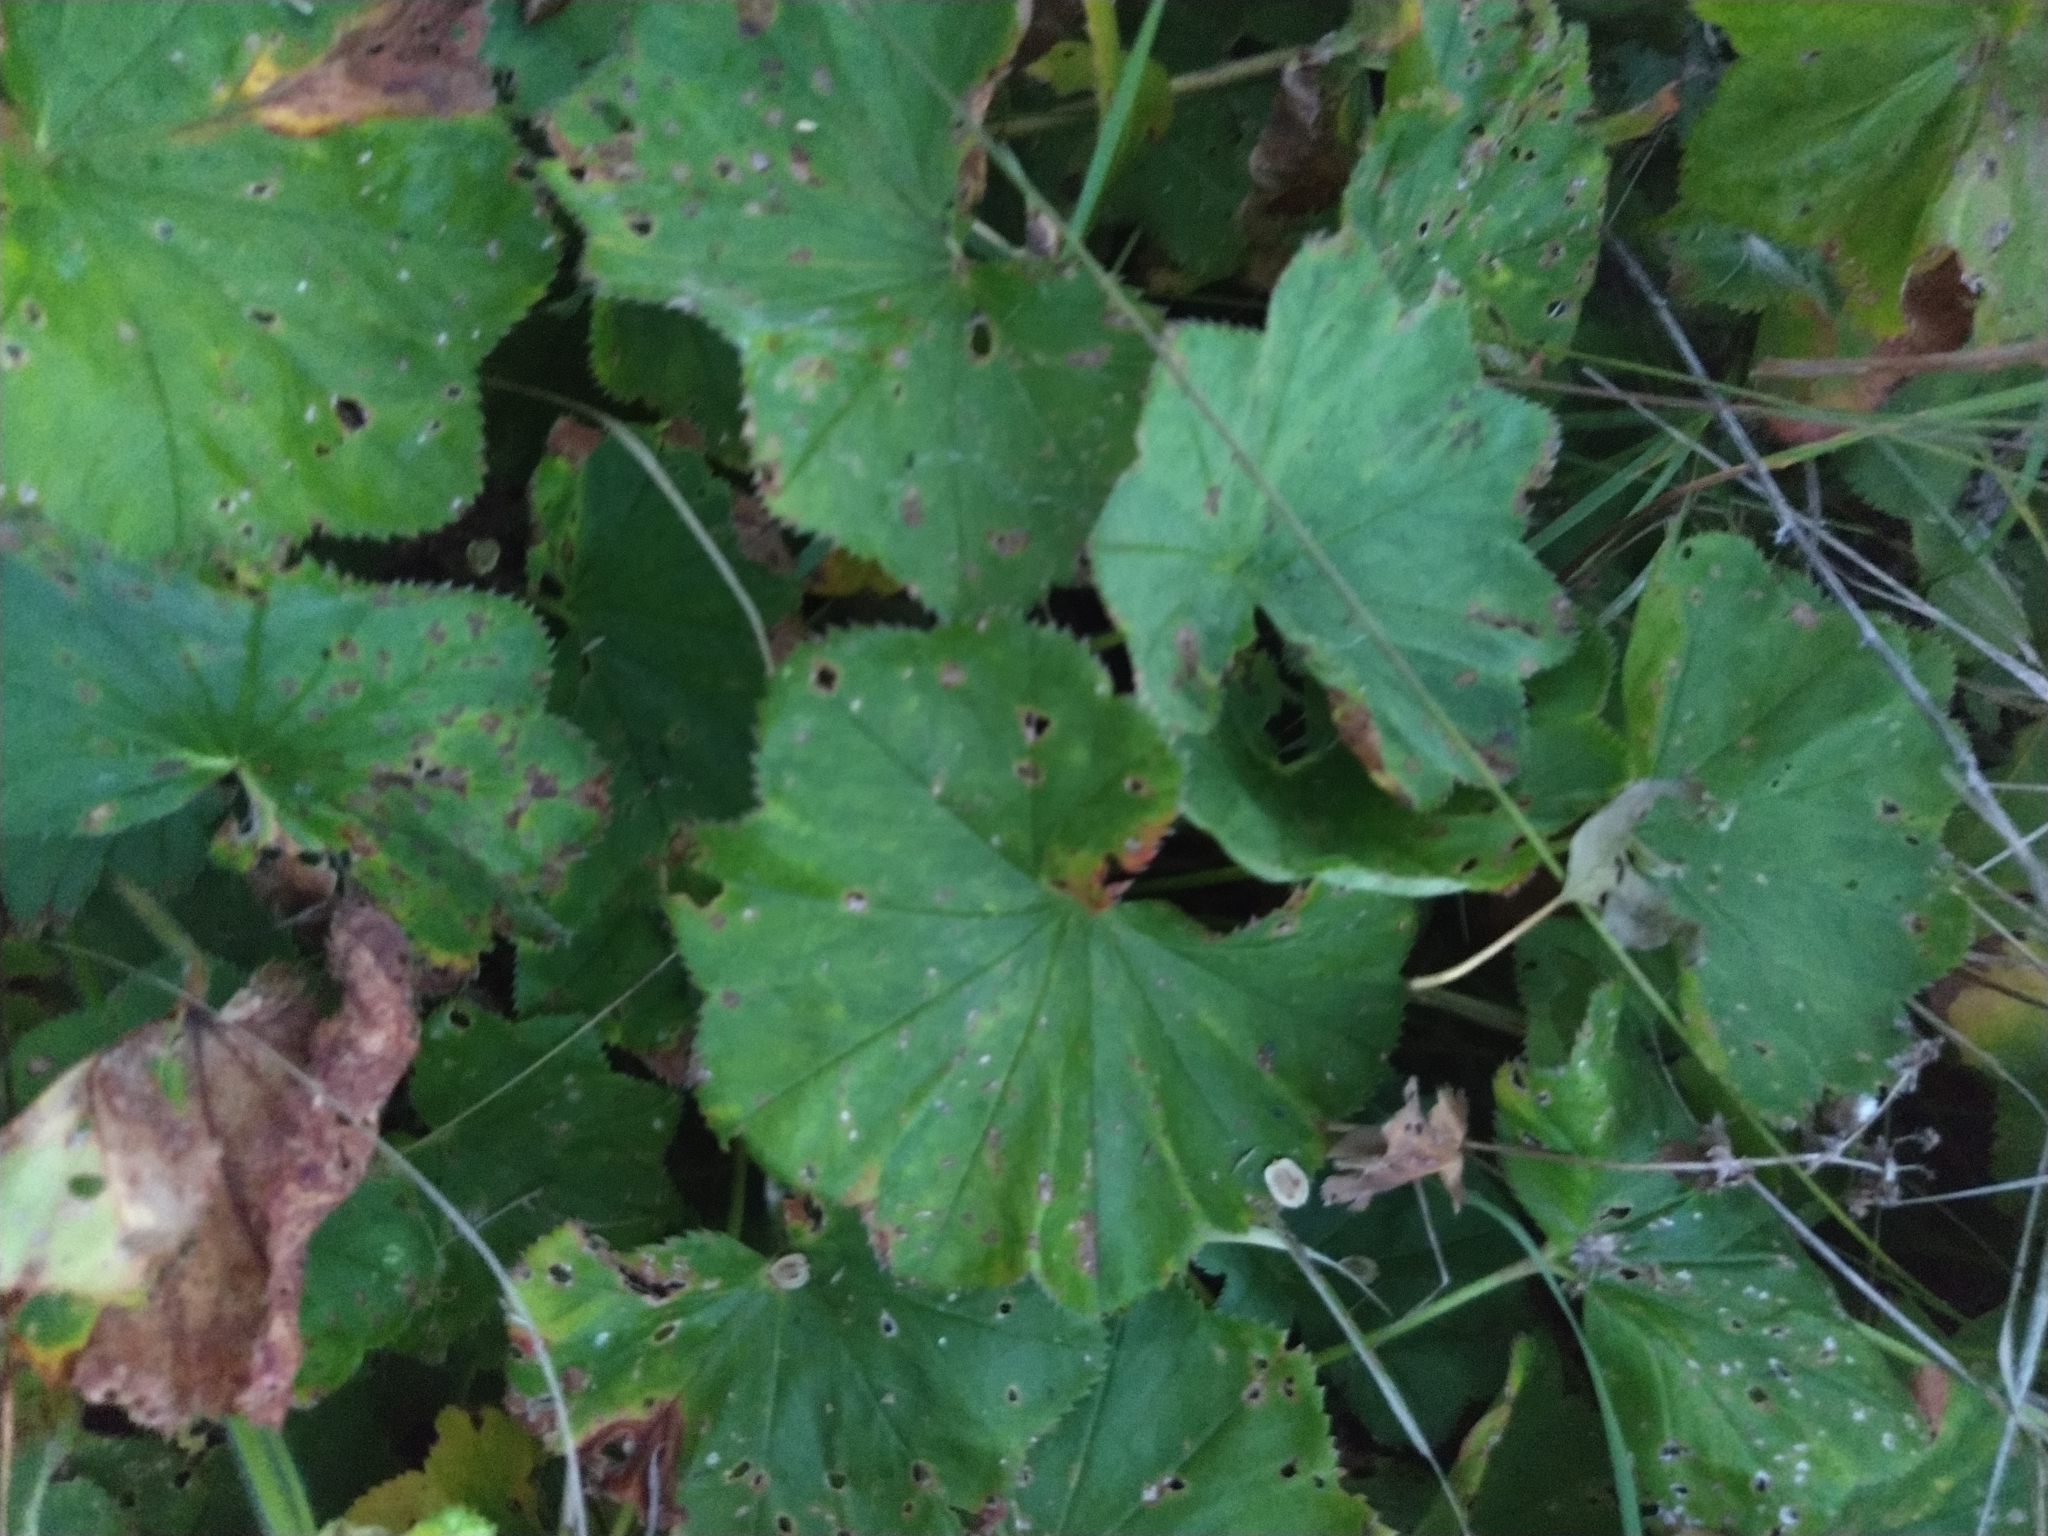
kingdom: Plantae
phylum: Tracheophyta
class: Magnoliopsida
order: Rosales
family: Rosaceae
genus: Alchemilla
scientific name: Alchemilla
